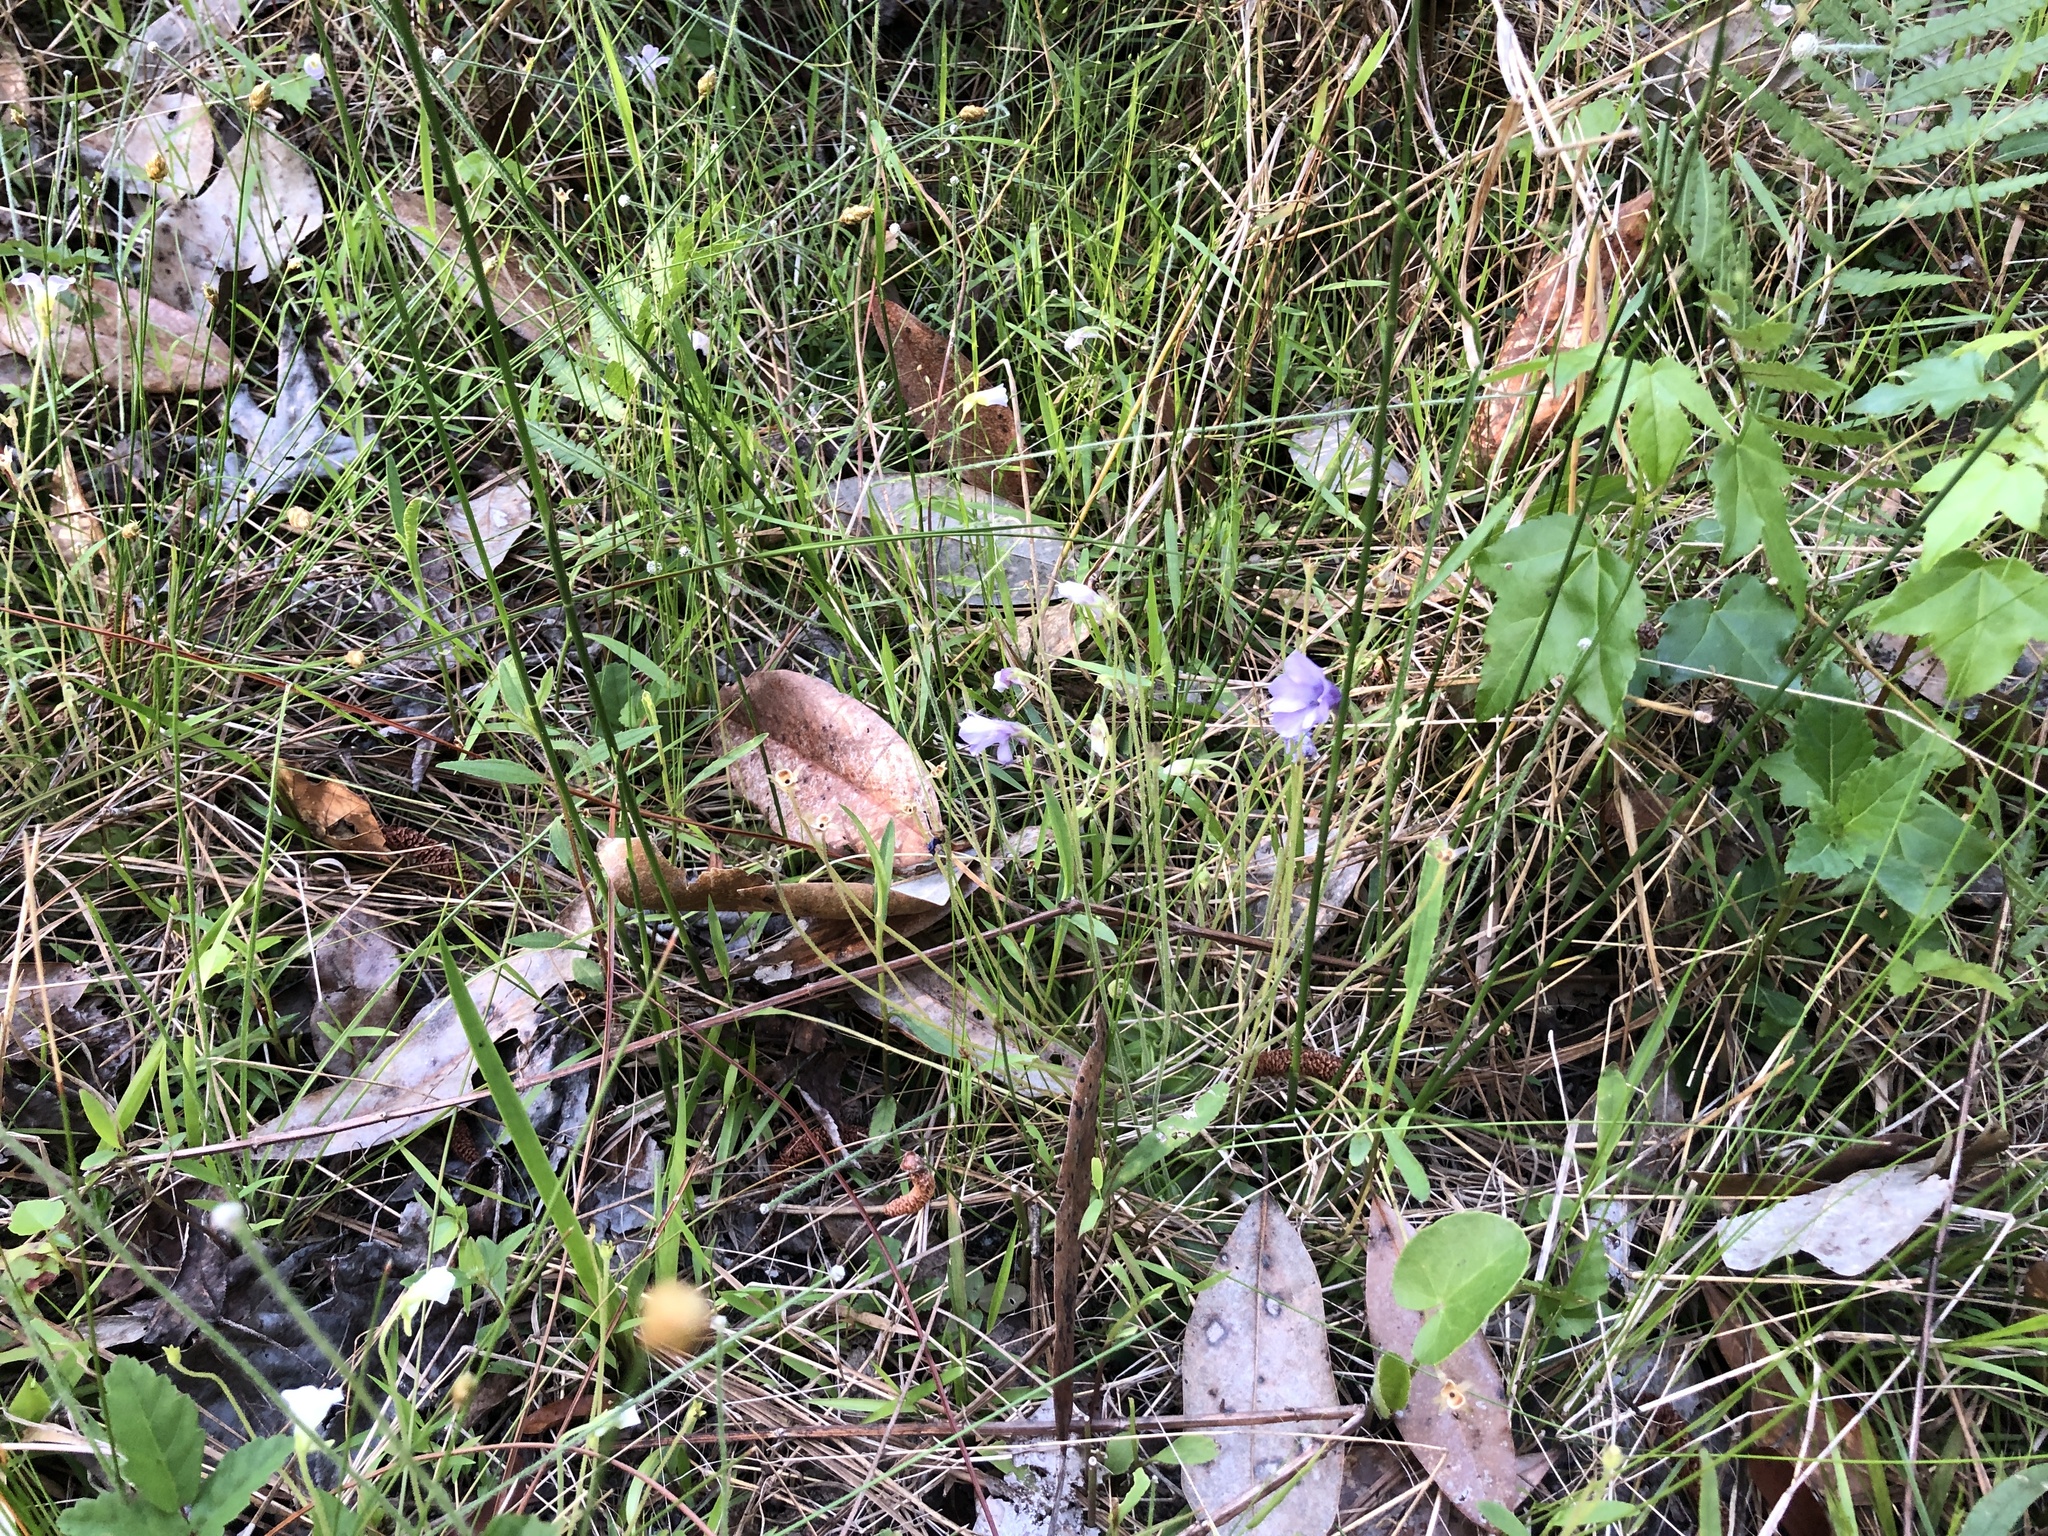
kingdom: Plantae
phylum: Tracheophyta
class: Magnoliopsida
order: Lamiales
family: Lentibulariaceae
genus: Pinguicula
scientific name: Pinguicula pumila
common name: Small butterwort
